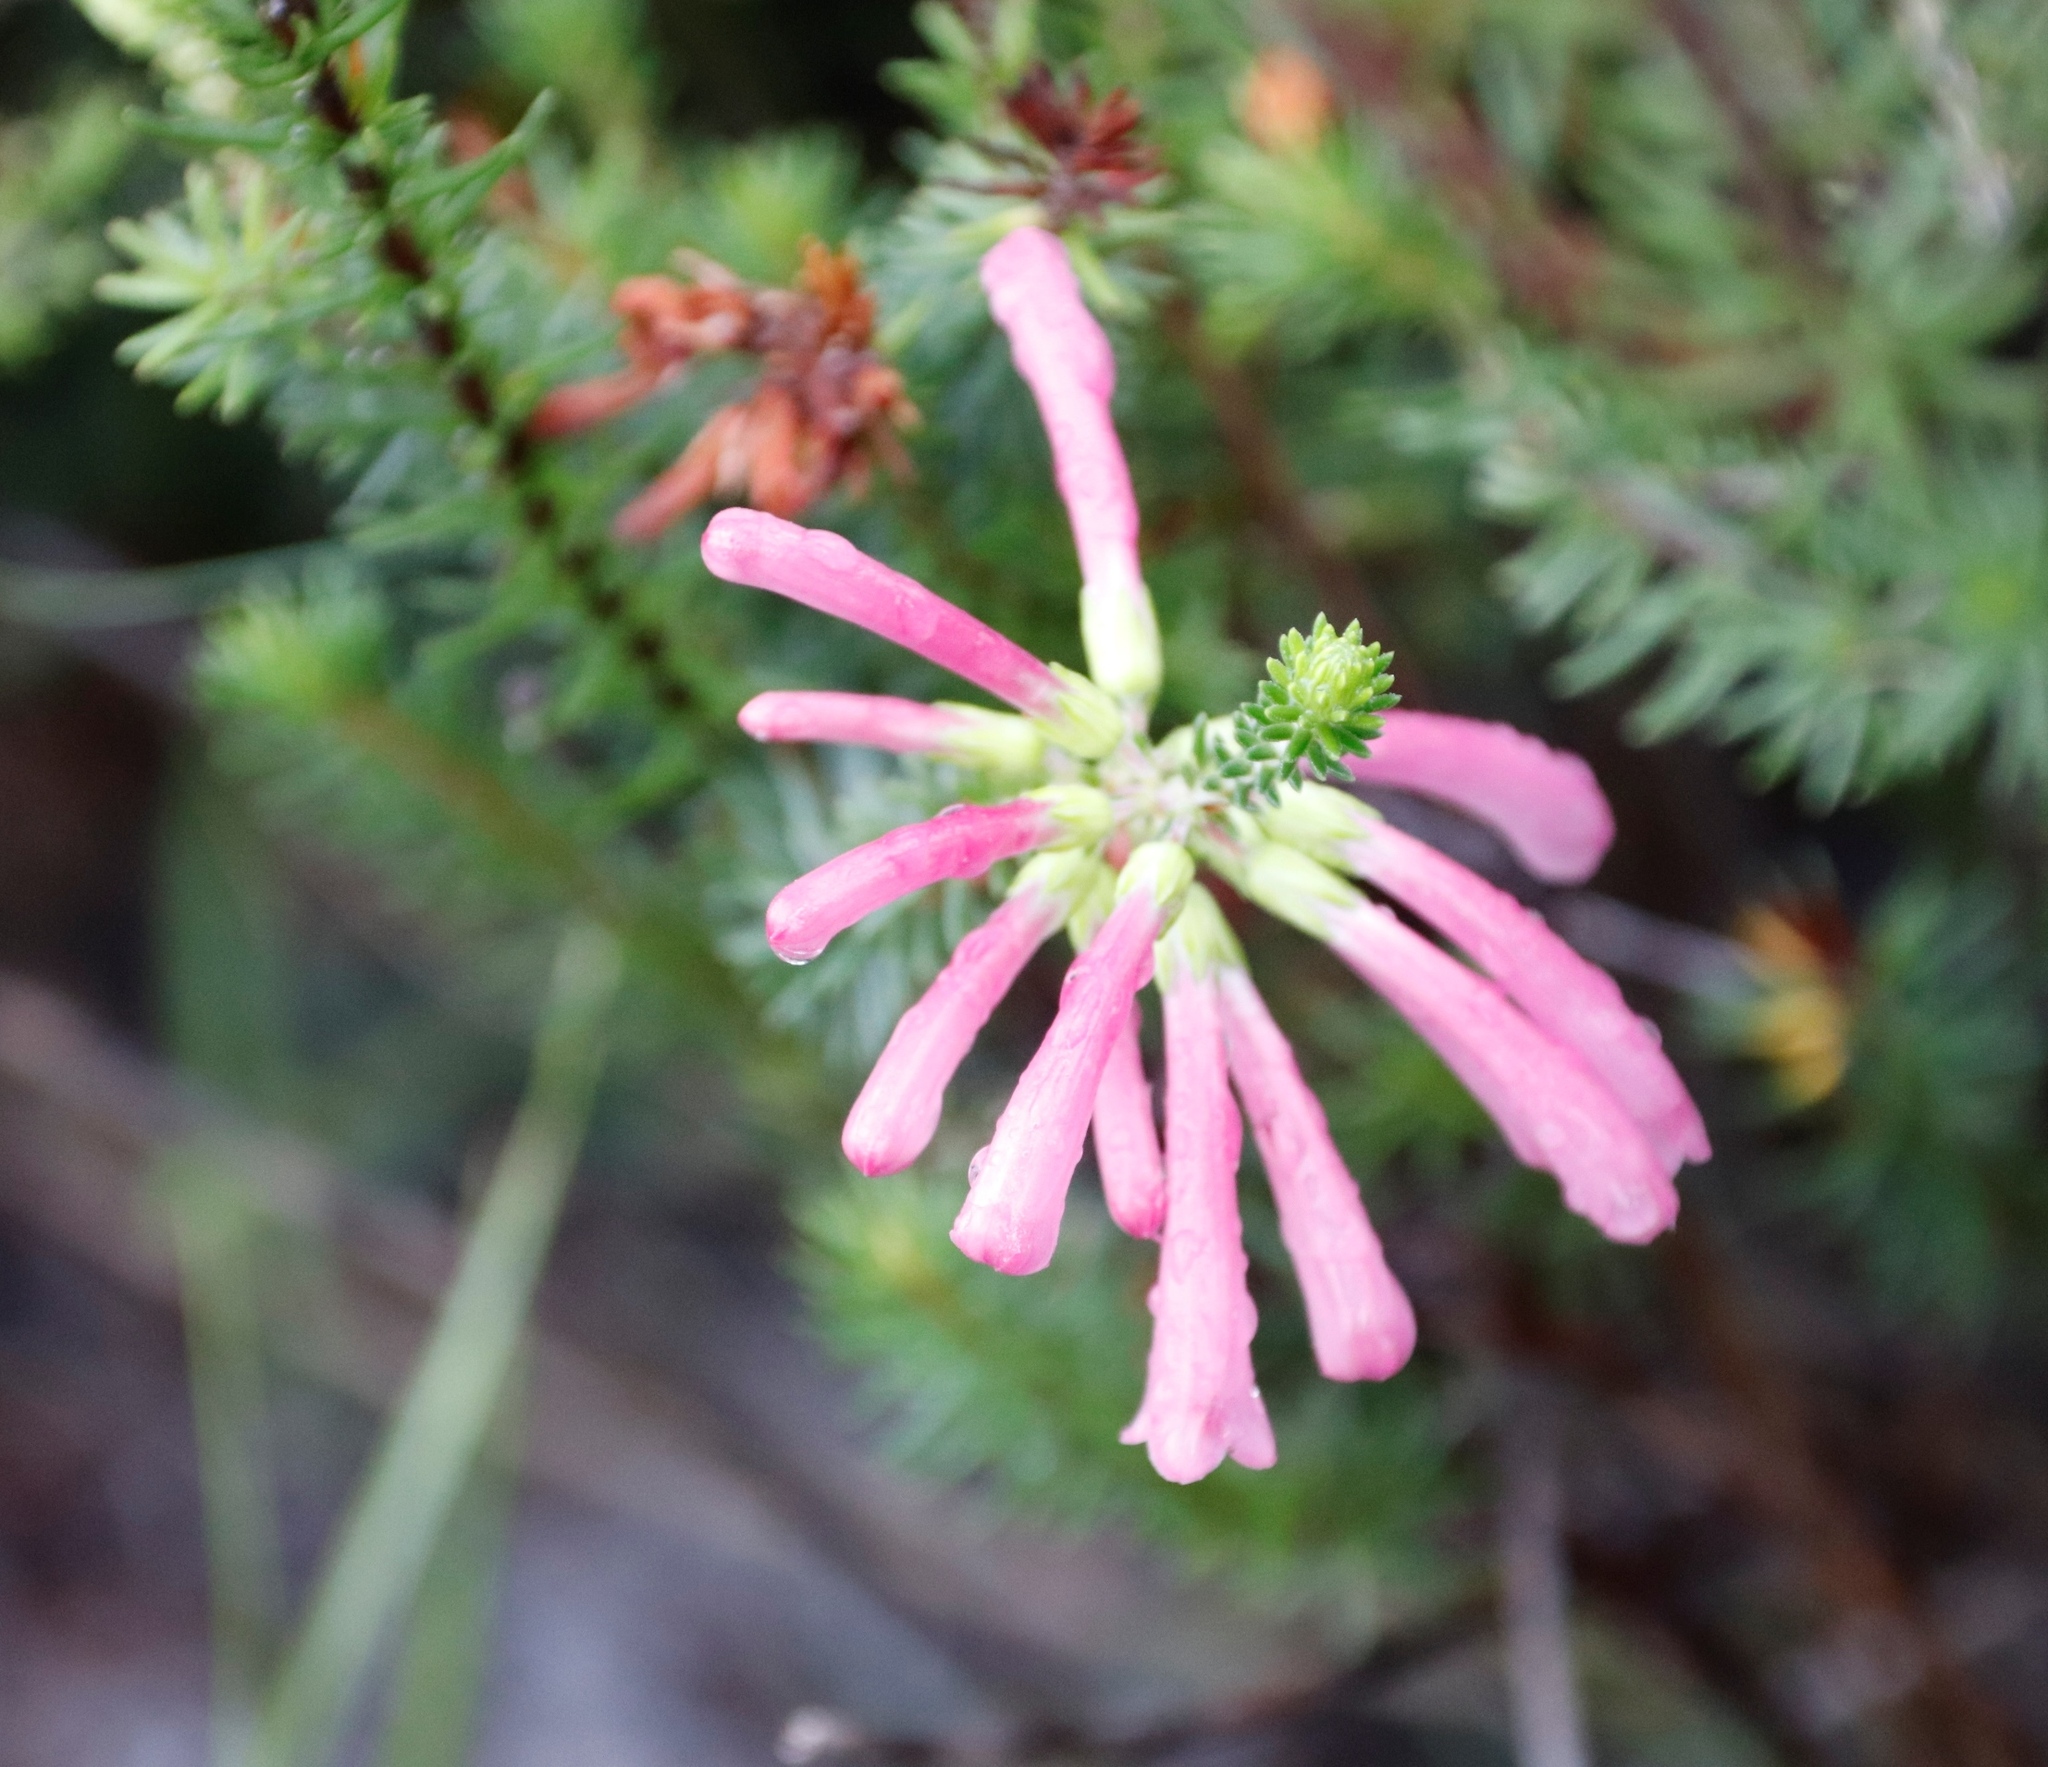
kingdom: Plantae
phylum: Tracheophyta
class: Magnoliopsida
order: Ericales
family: Ericaceae
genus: Erica
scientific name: Erica abietina
